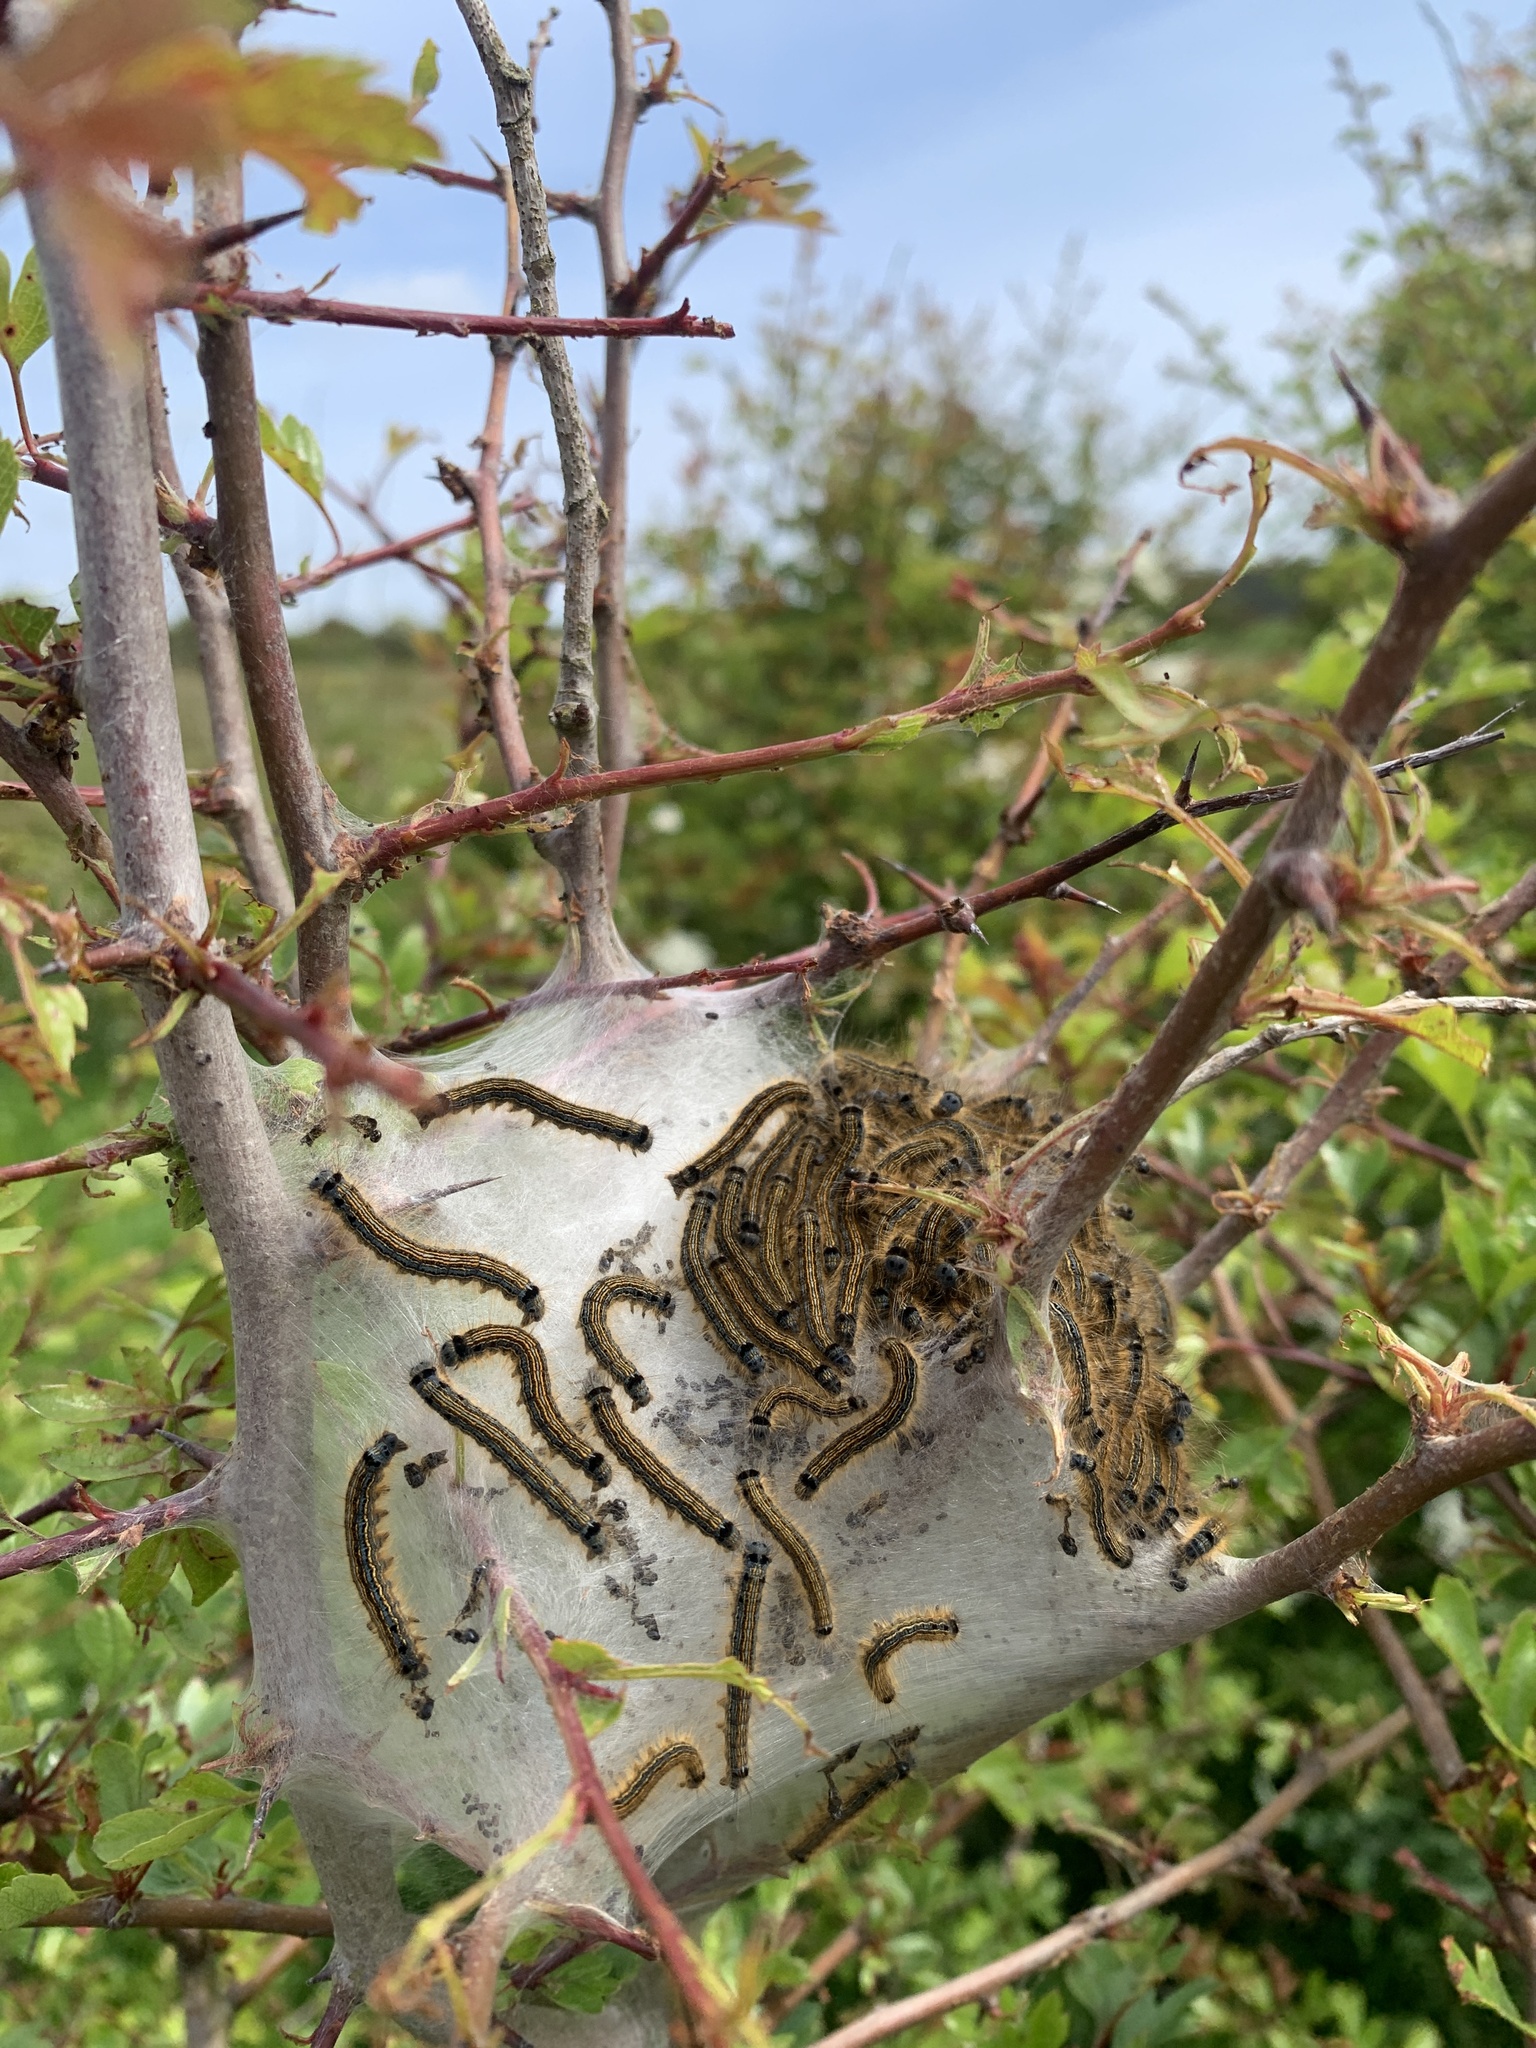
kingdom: Animalia
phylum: Arthropoda
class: Insecta
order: Lepidoptera
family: Lasiocampidae
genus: Malacosoma
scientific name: Malacosoma neustria
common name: The lackey
